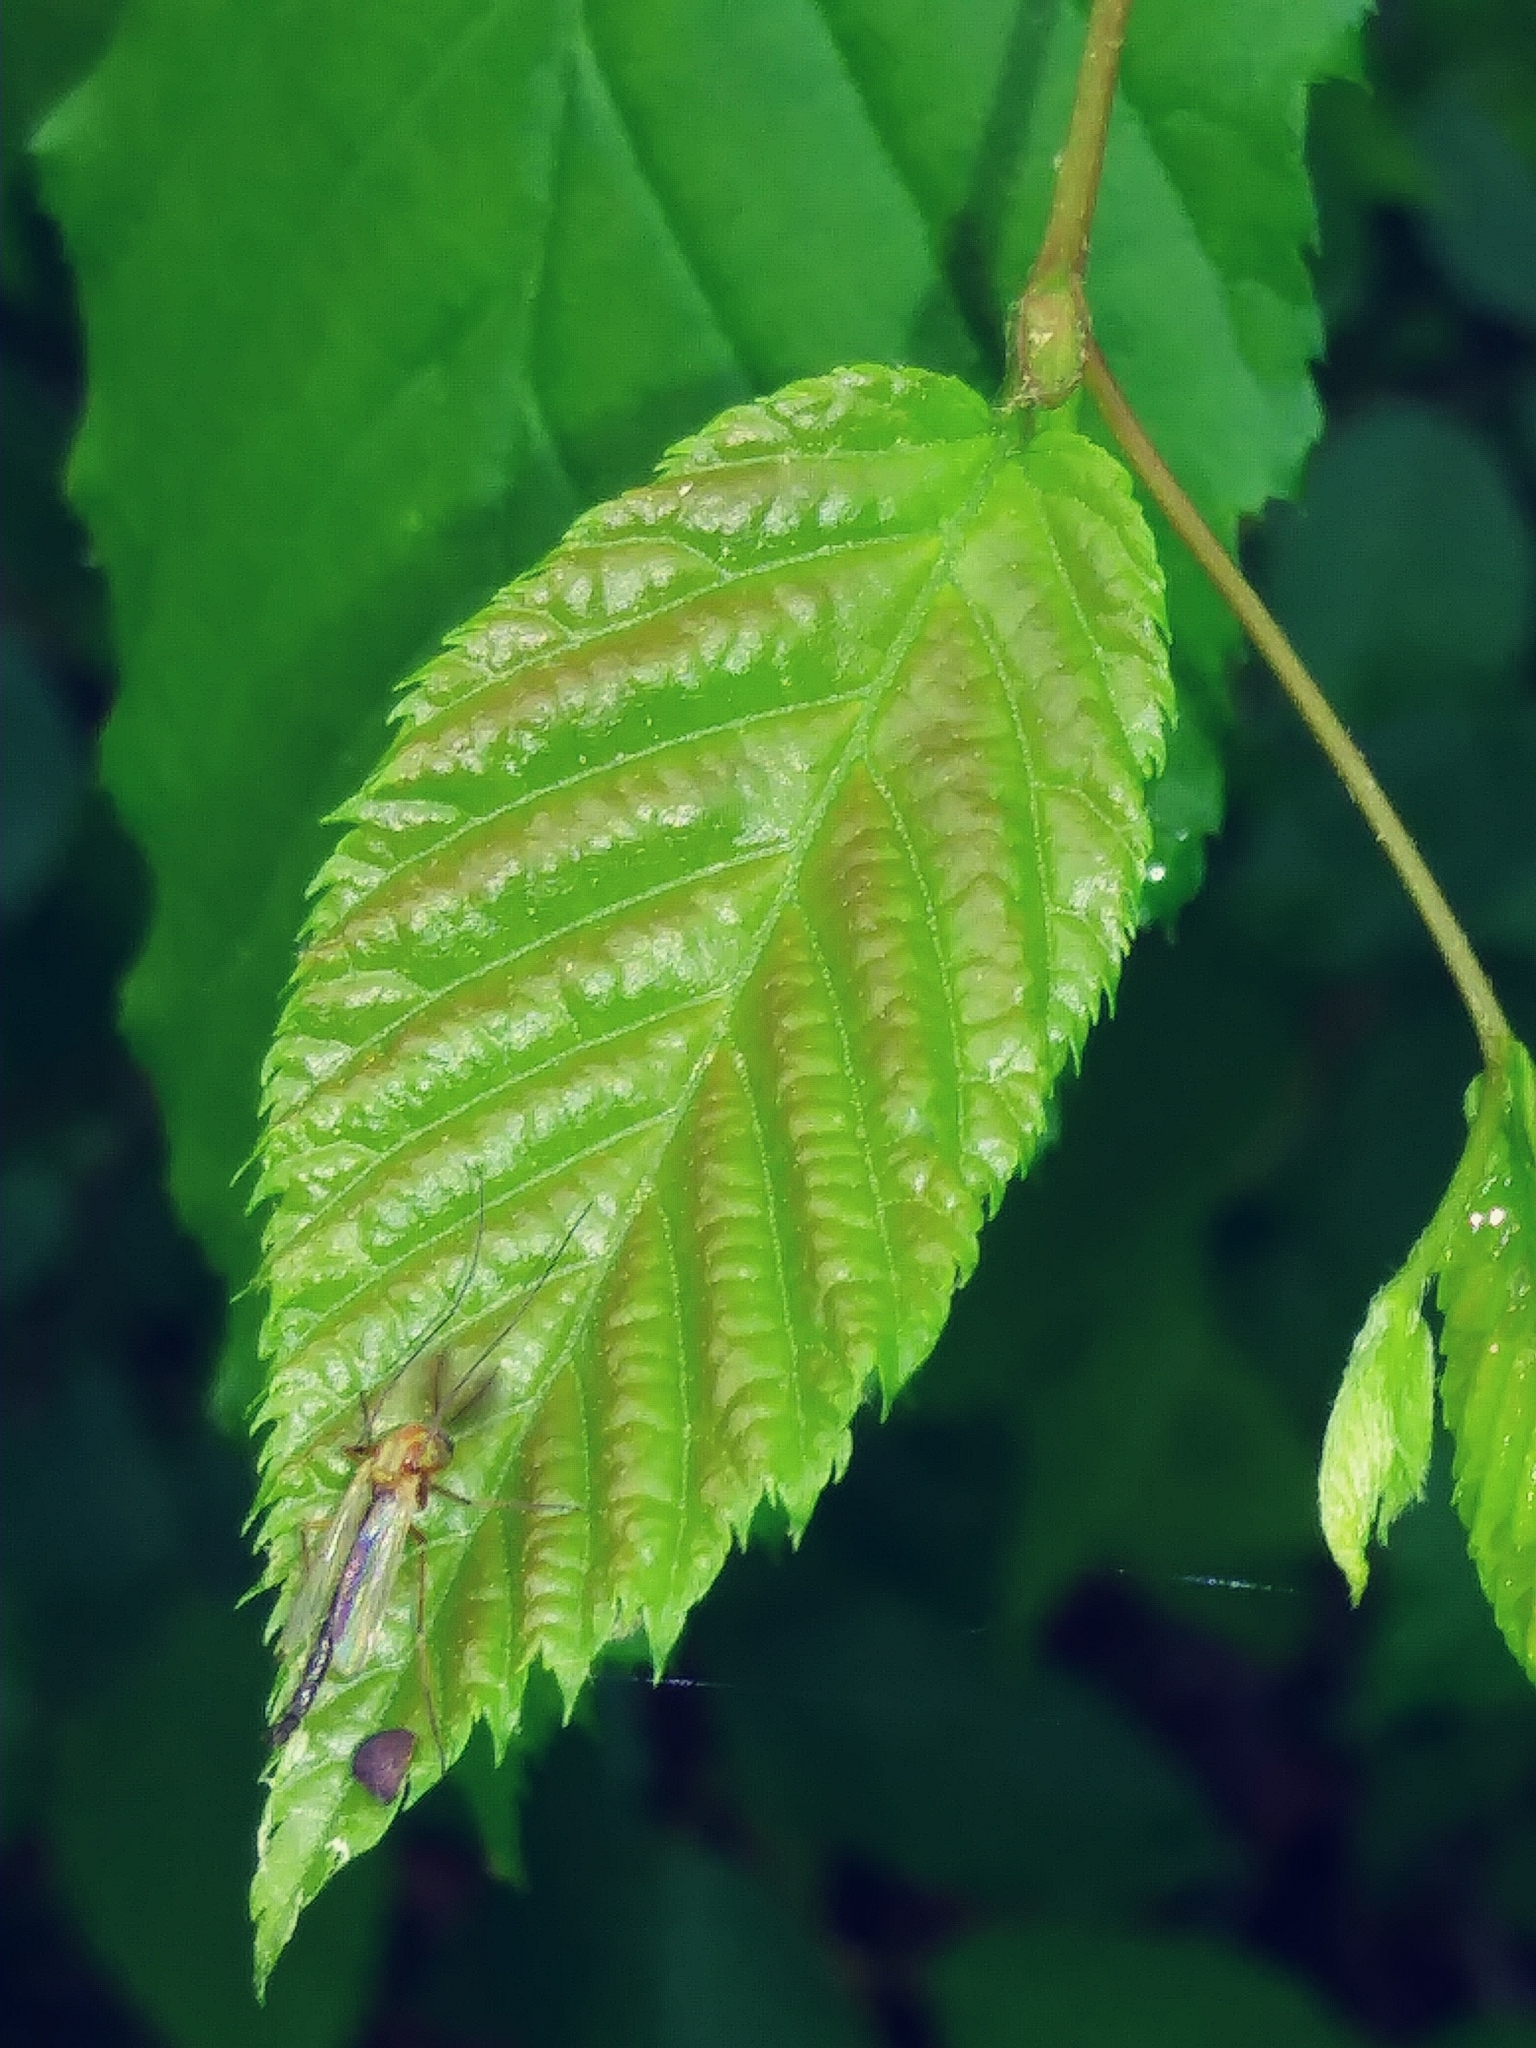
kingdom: Animalia
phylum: Arthropoda
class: Insecta
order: Diptera
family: Chironomidae
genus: Chironomus
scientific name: Chironomus ochreatus
